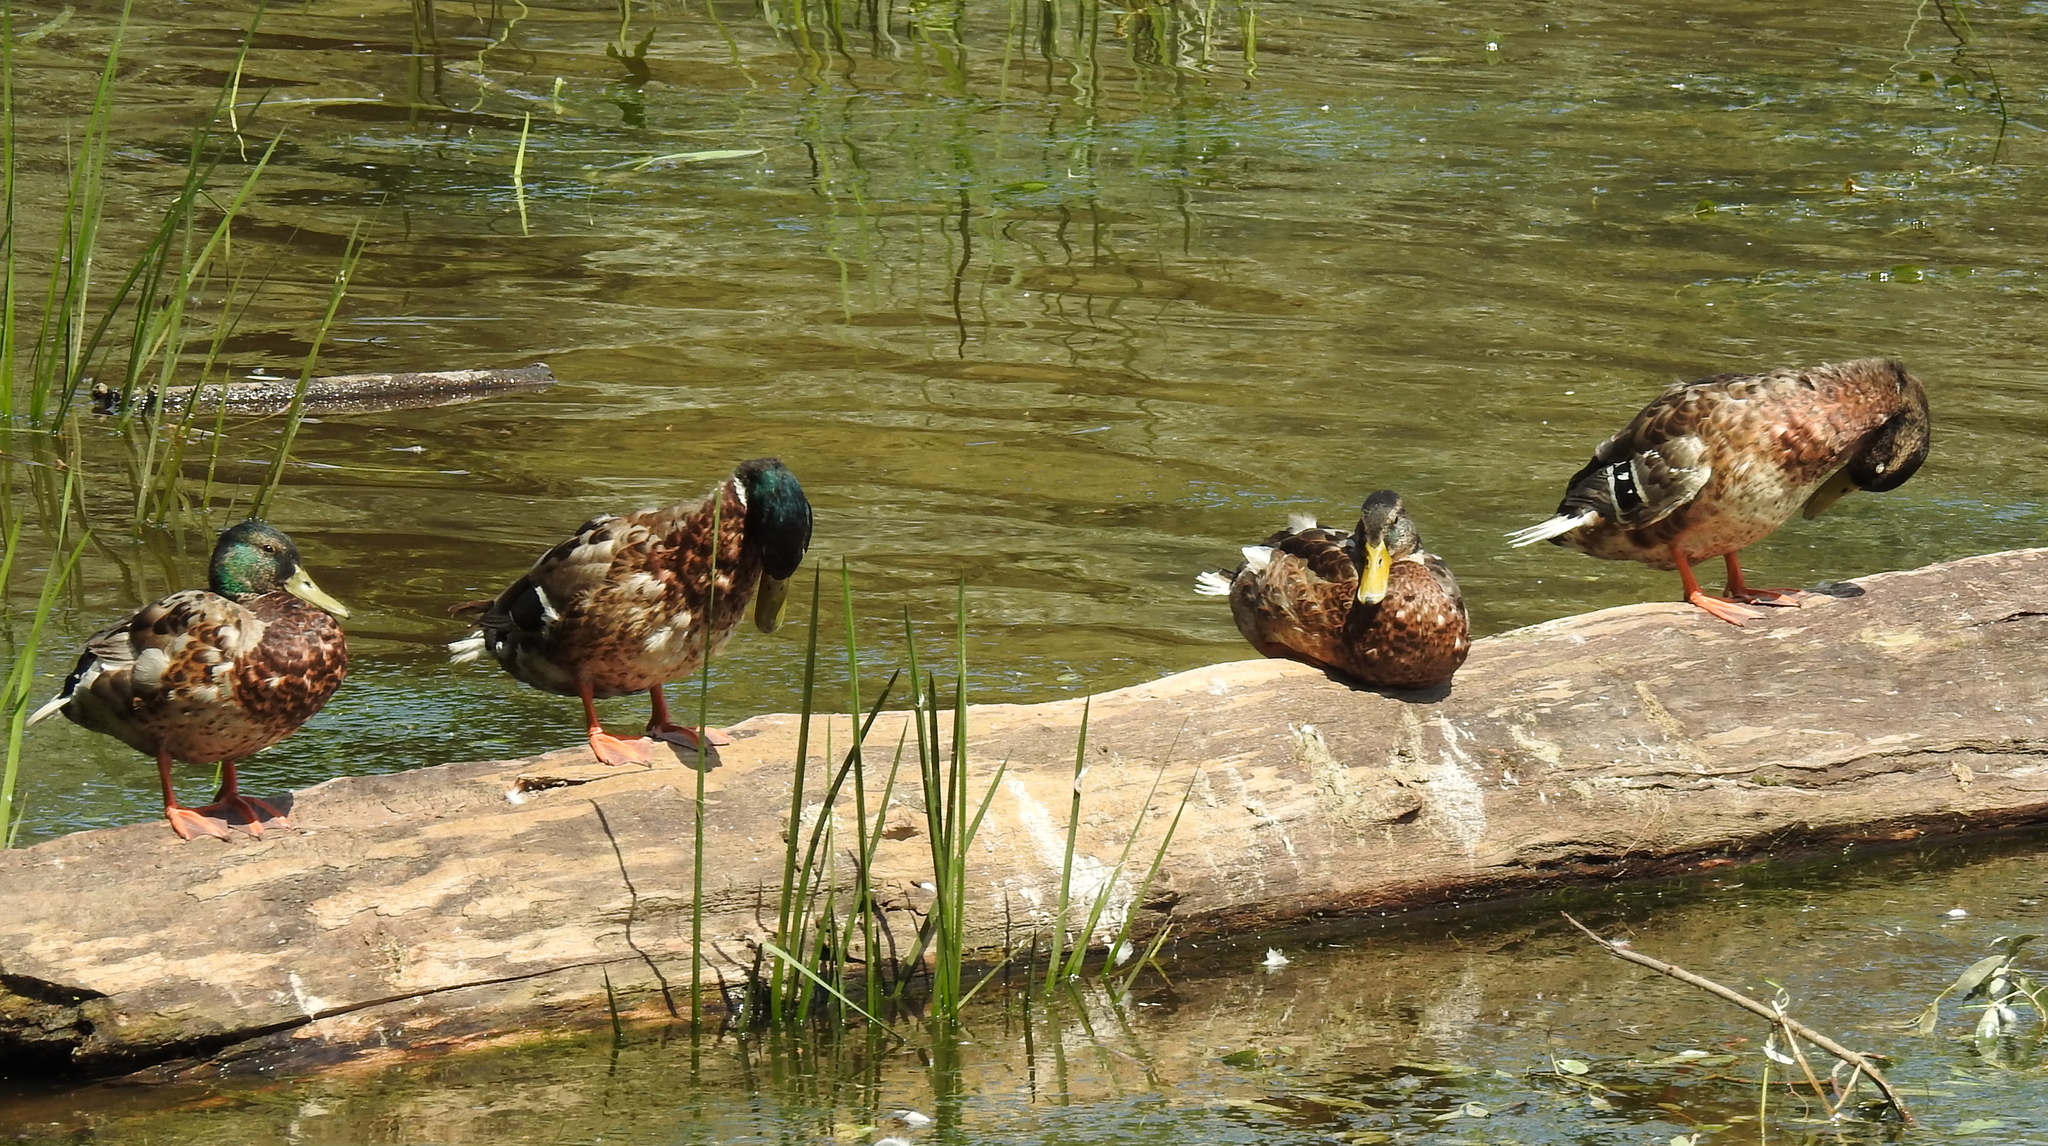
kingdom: Animalia
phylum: Chordata
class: Aves
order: Anseriformes
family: Anatidae
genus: Anas
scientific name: Anas platyrhynchos
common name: Mallard
